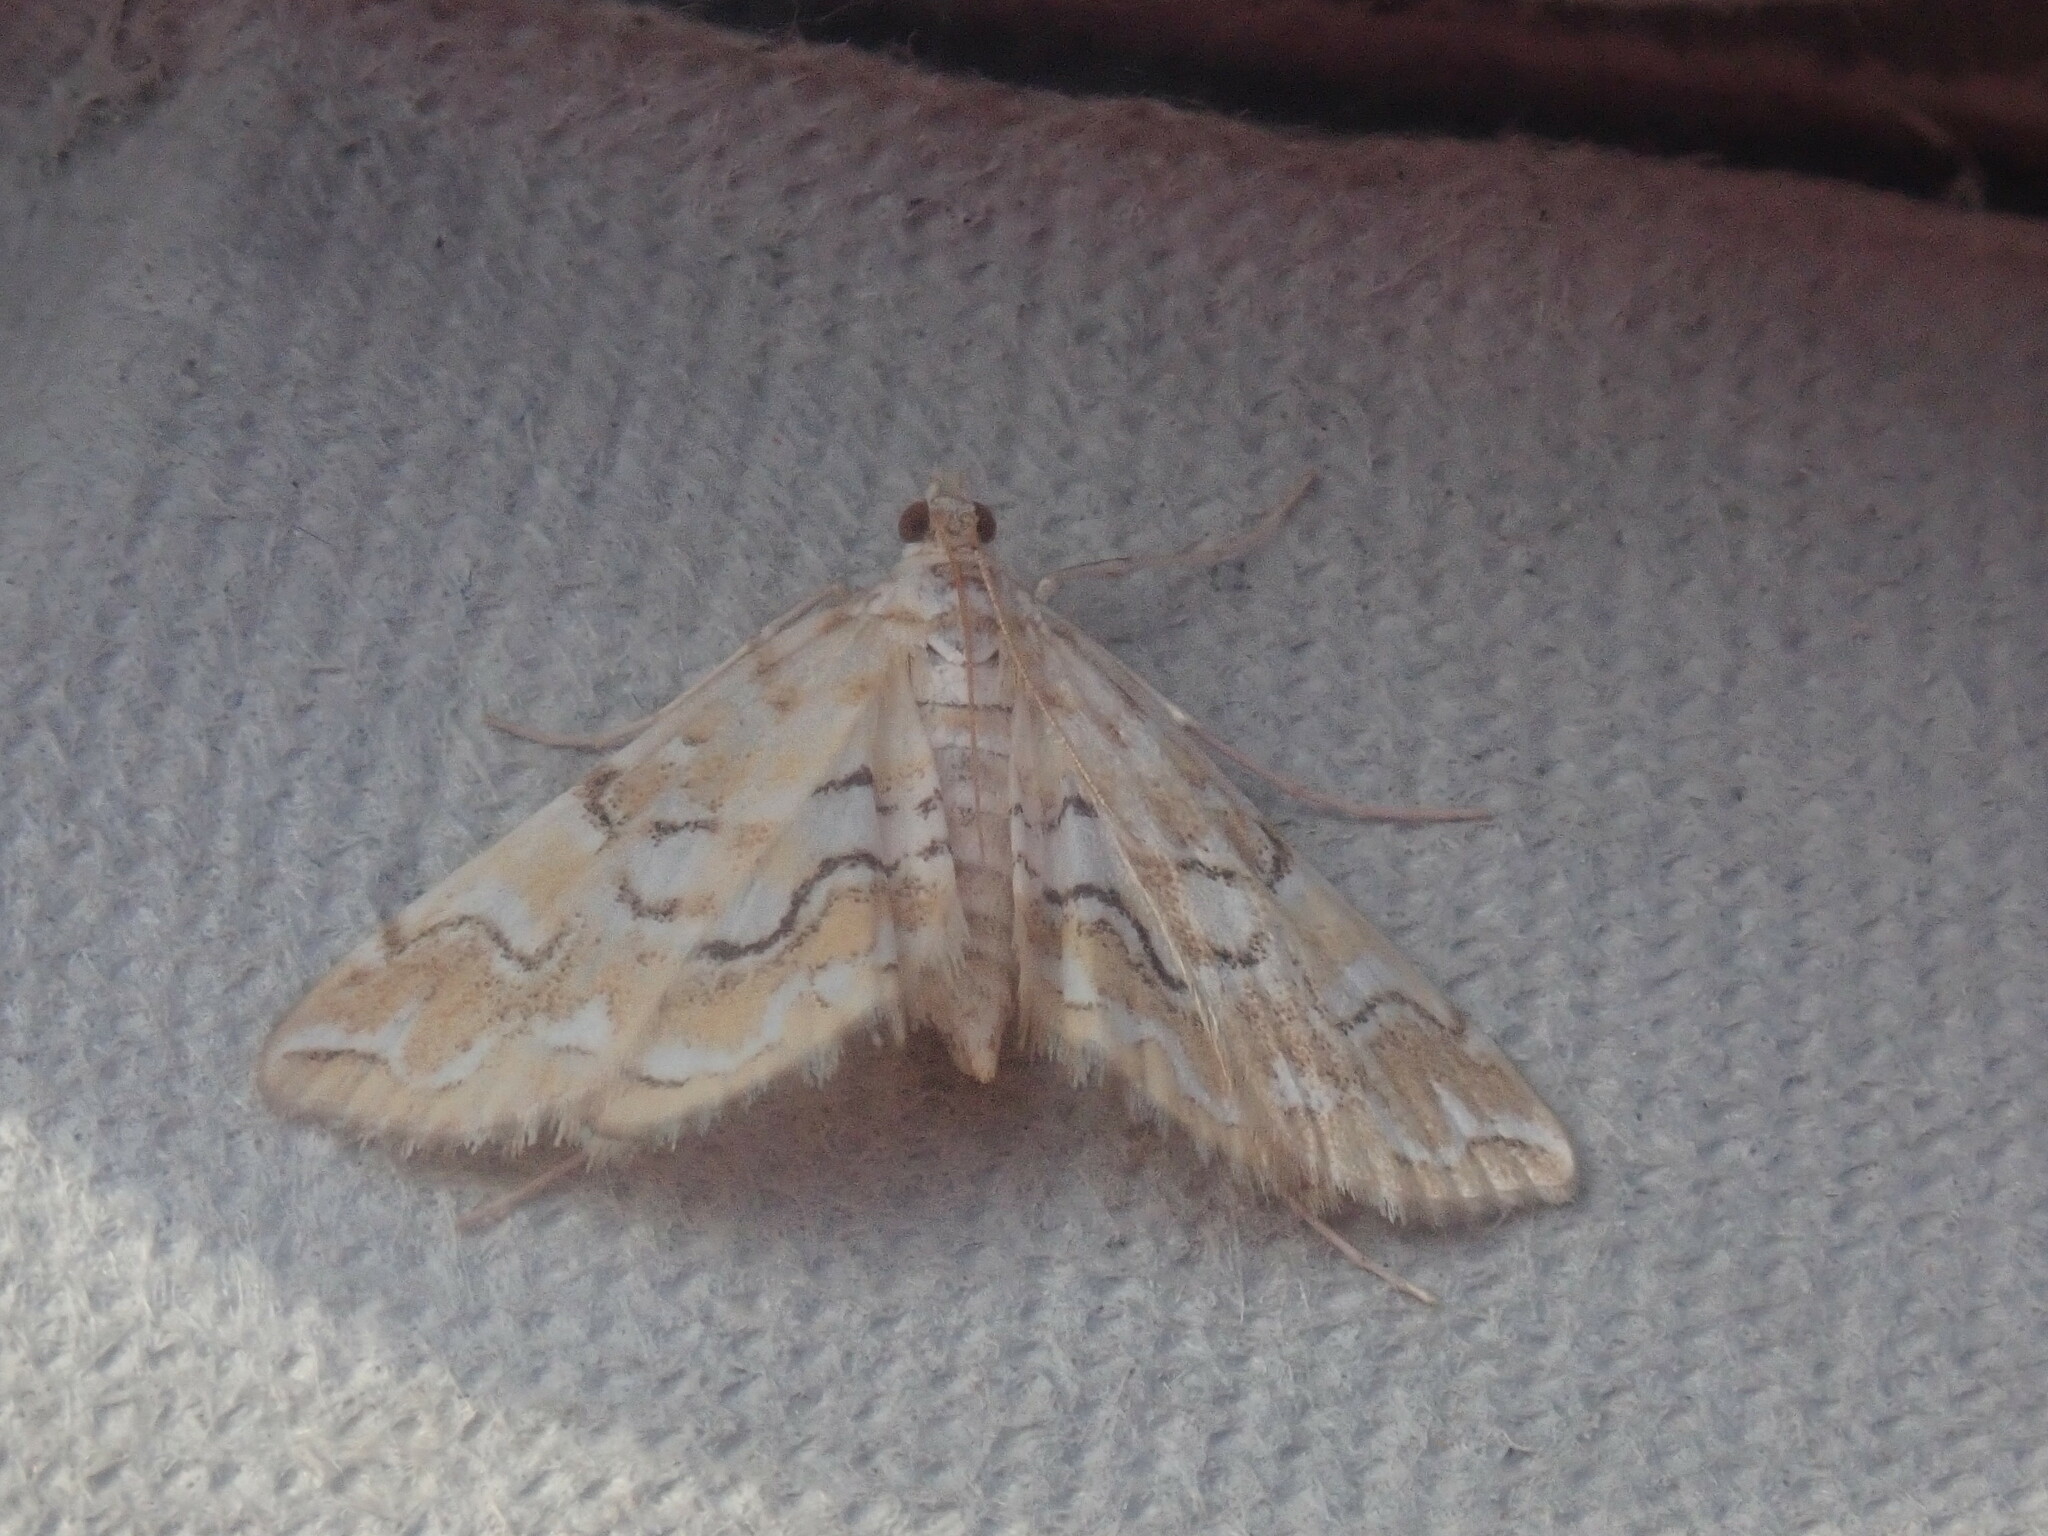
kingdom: Animalia
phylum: Arthropoda
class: Insecta
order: Lepidoptera
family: Crambidae
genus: Elophila
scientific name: Elophila icciusalis
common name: Pondside pyralid moth
